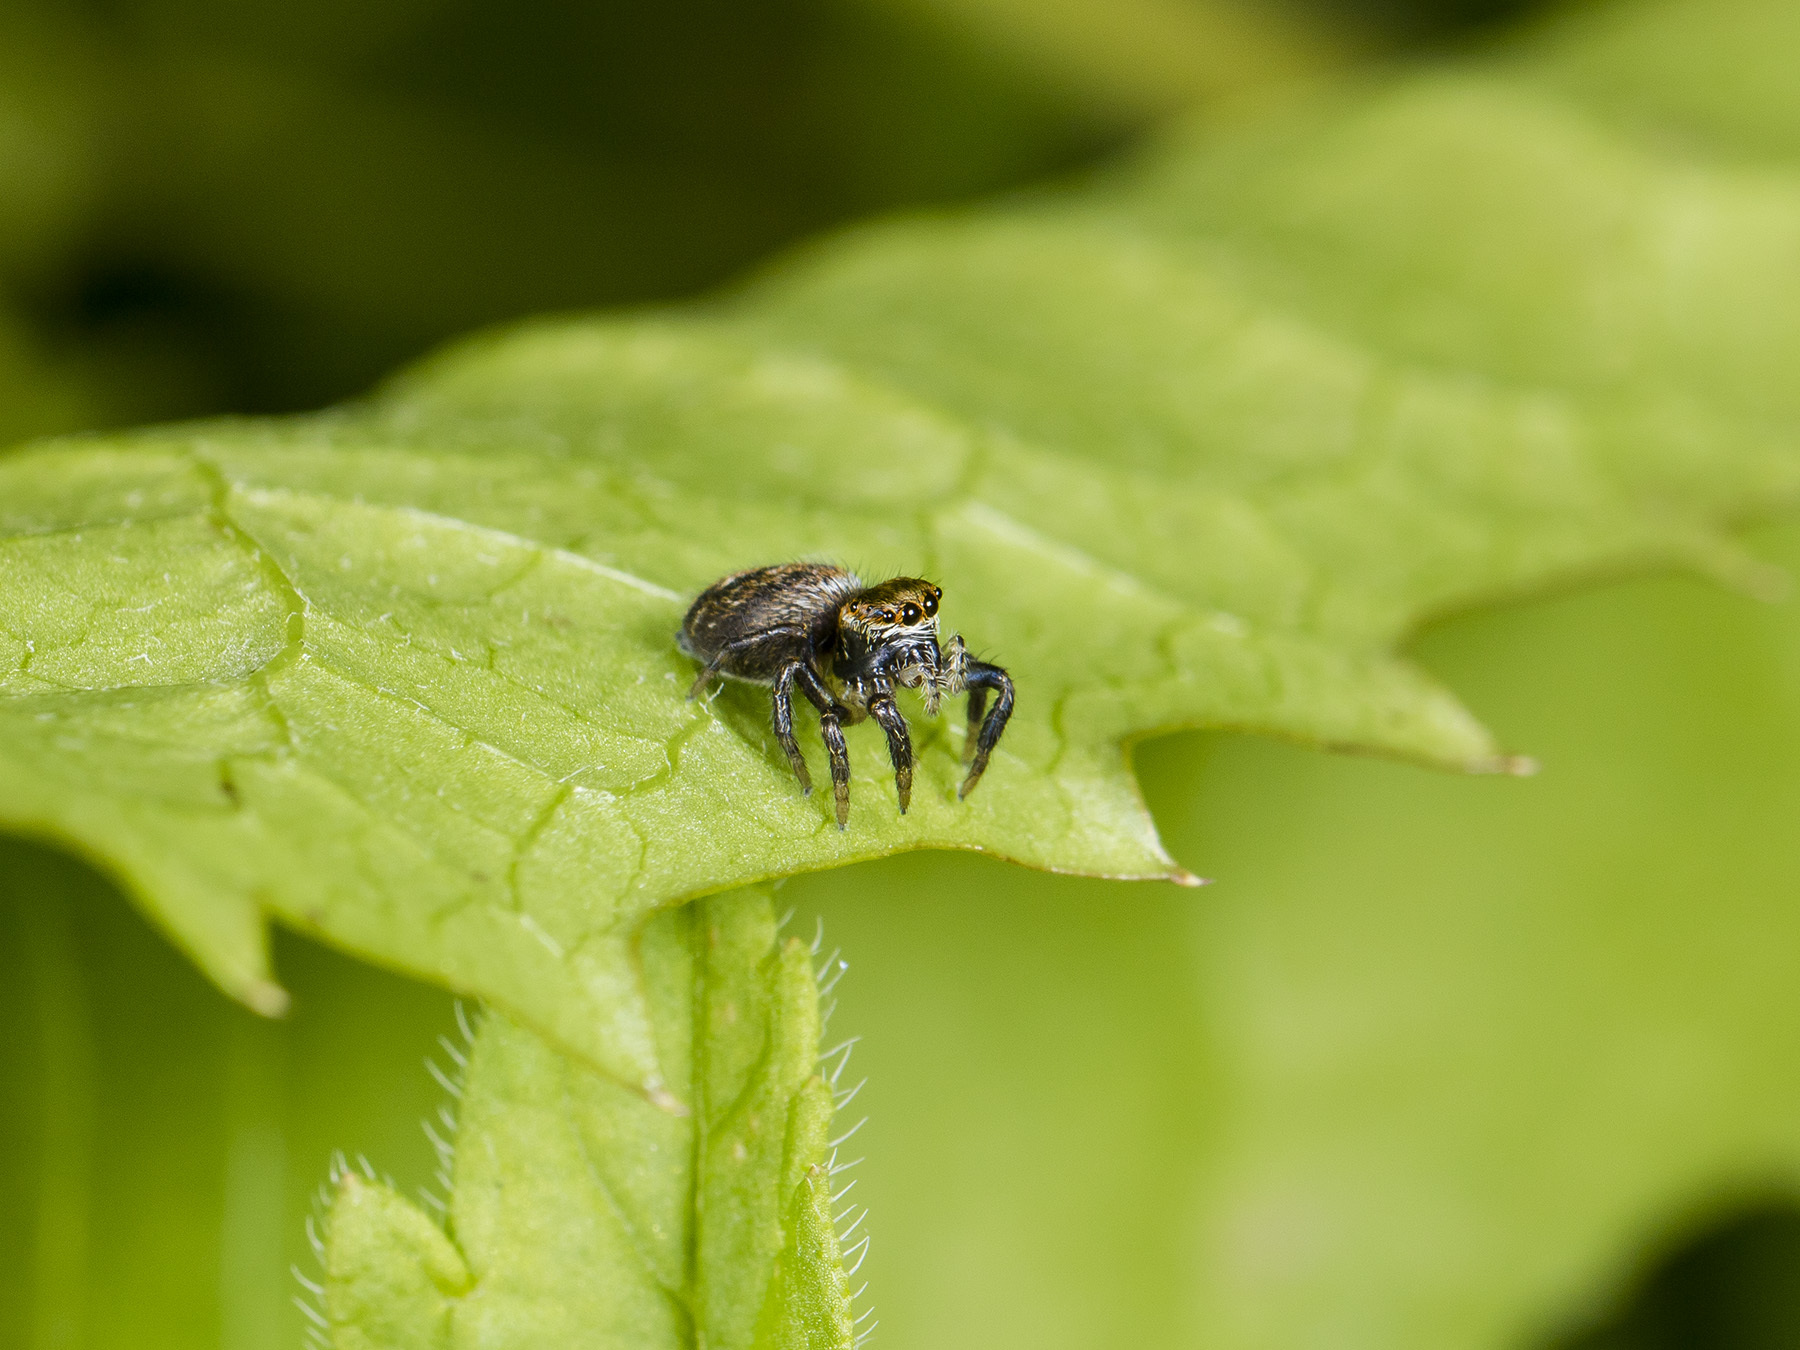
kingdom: Animalia
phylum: Arthropoda
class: Arachnida
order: Araneae
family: Salticidae
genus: Evarcha
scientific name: Evarcha arcuata
